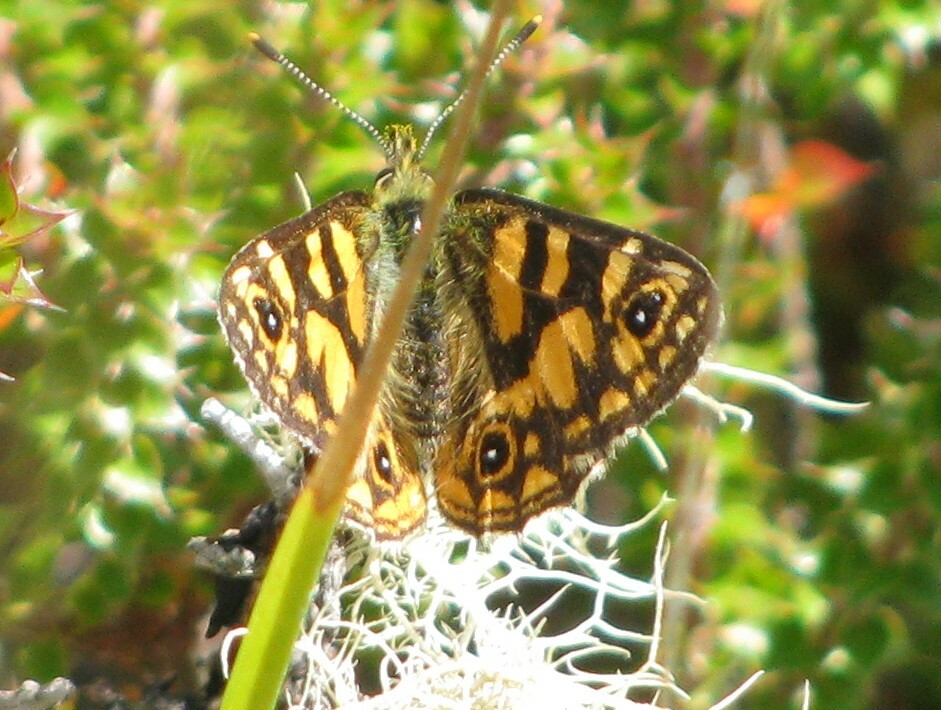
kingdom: Animalia
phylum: Arthropoda
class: Insecta
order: Lepidoptera
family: Nymphalidae
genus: Oreixenica
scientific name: Oreixenica lathoniella
